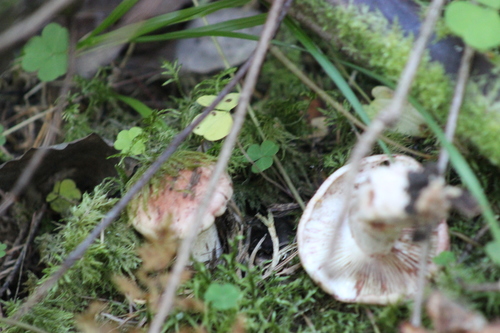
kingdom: Fungi
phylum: Basidiomycota
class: Agaricomycetes
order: Agaricales
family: Hygrophoraceae
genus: Hygrophorus
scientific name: Hygrophorus erubescens
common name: Blotched woodwax
